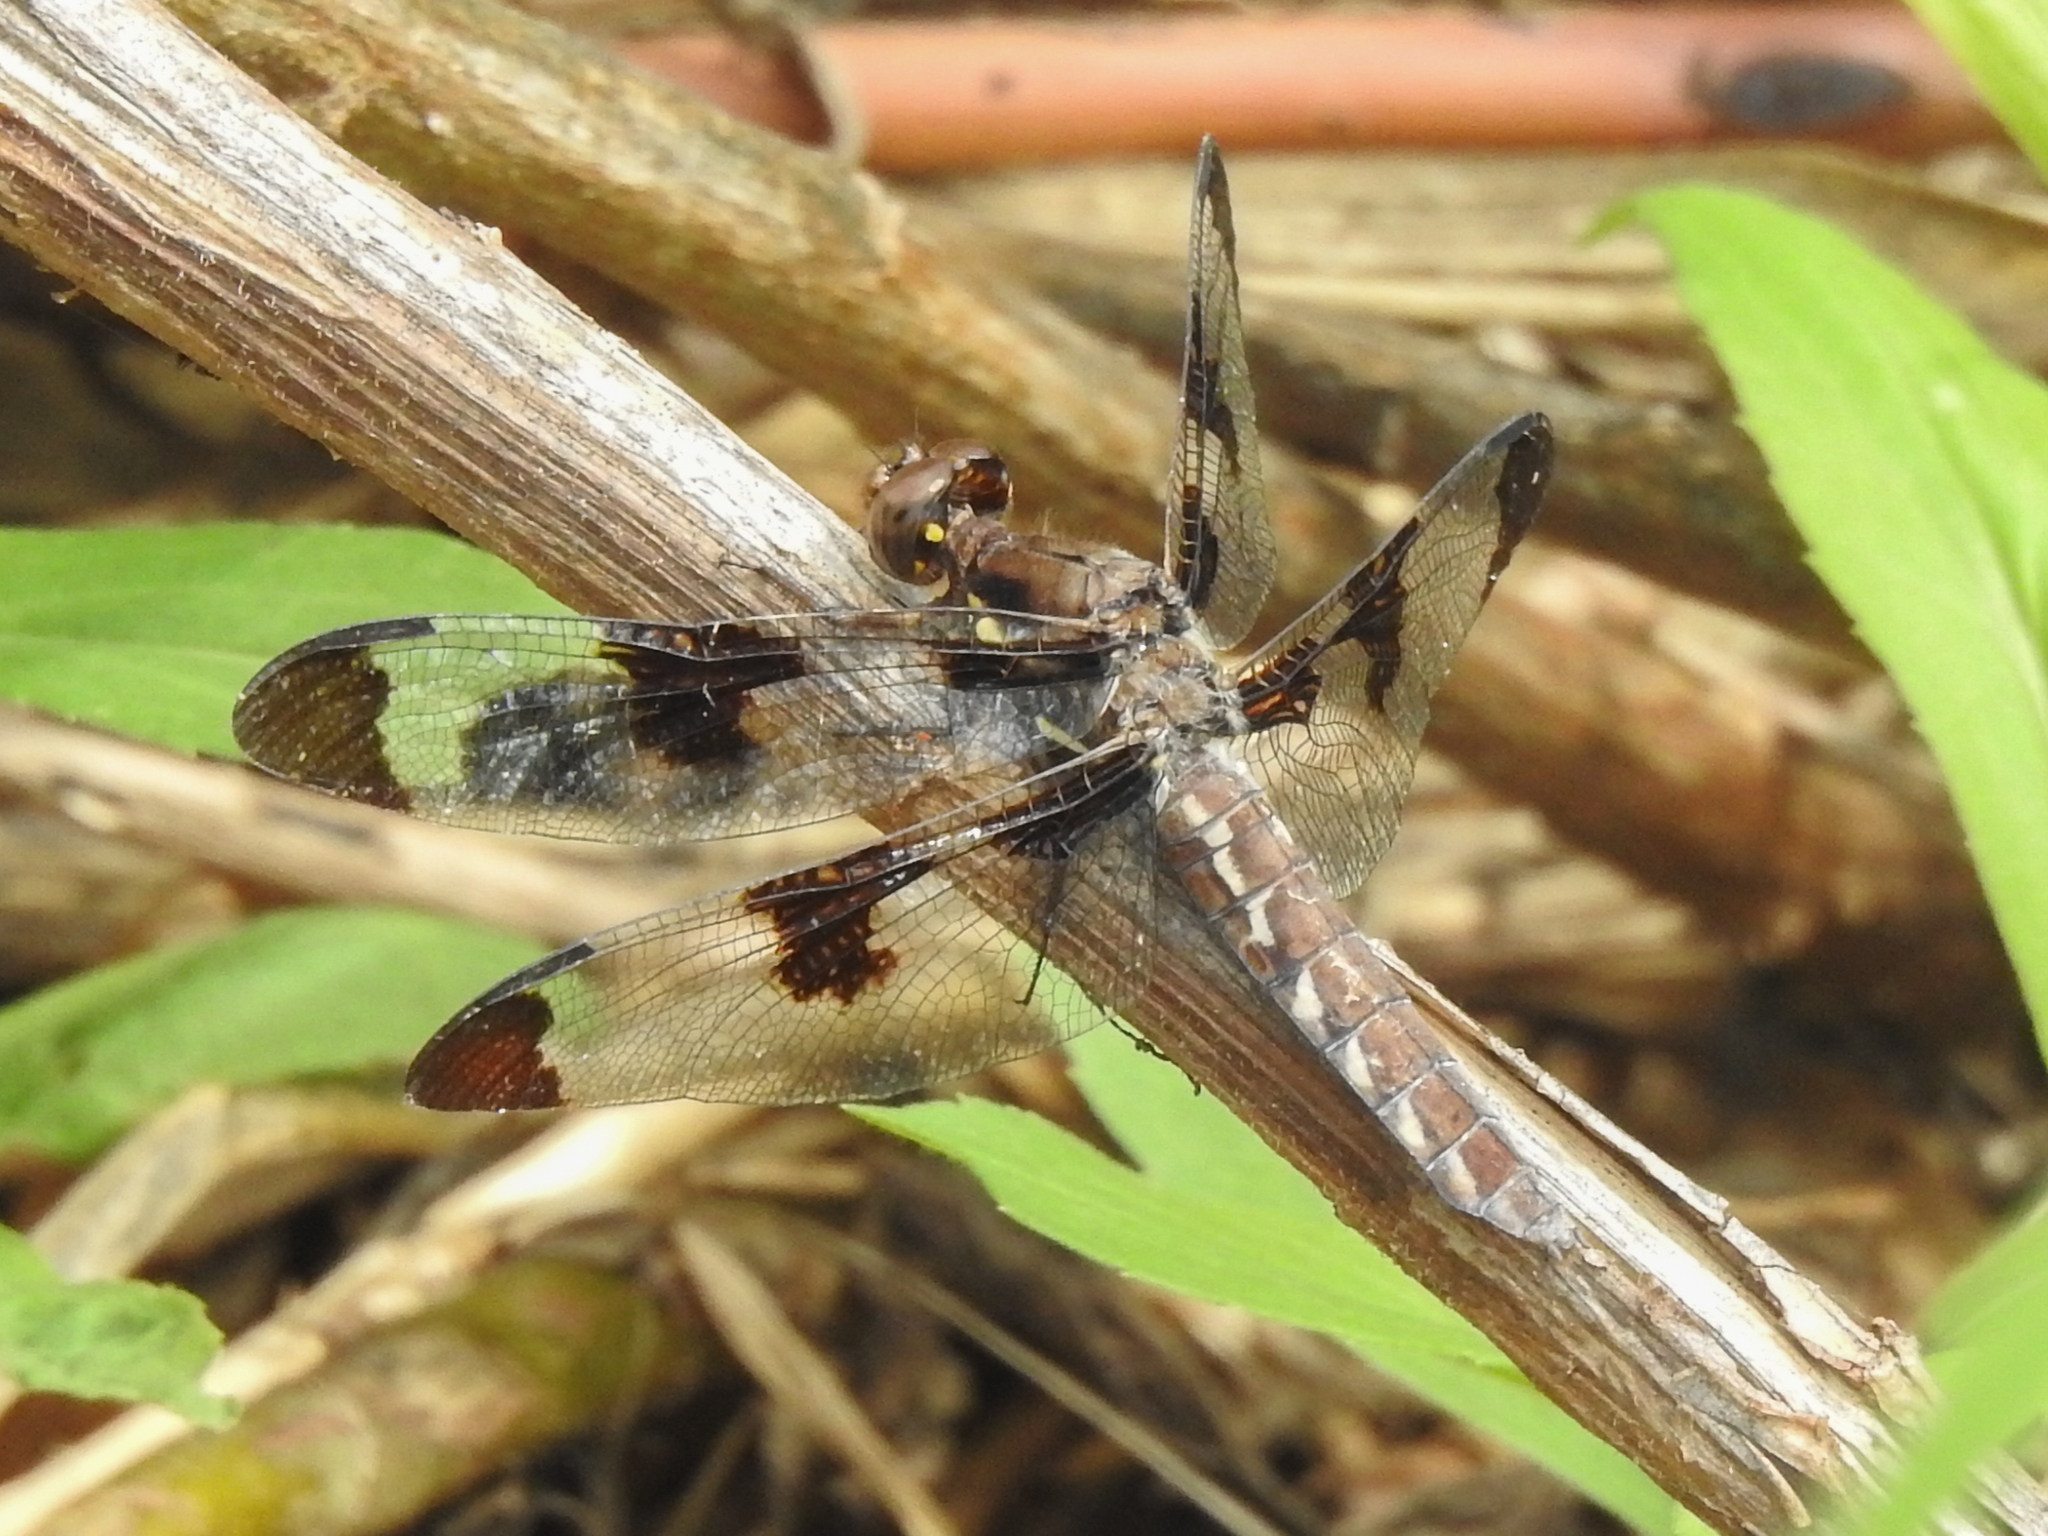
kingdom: Animalia
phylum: Arthropoda
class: Insecta
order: Odonata
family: Libellulidae
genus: Plathemis
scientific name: Plathemis lydia
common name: Common whitetail
